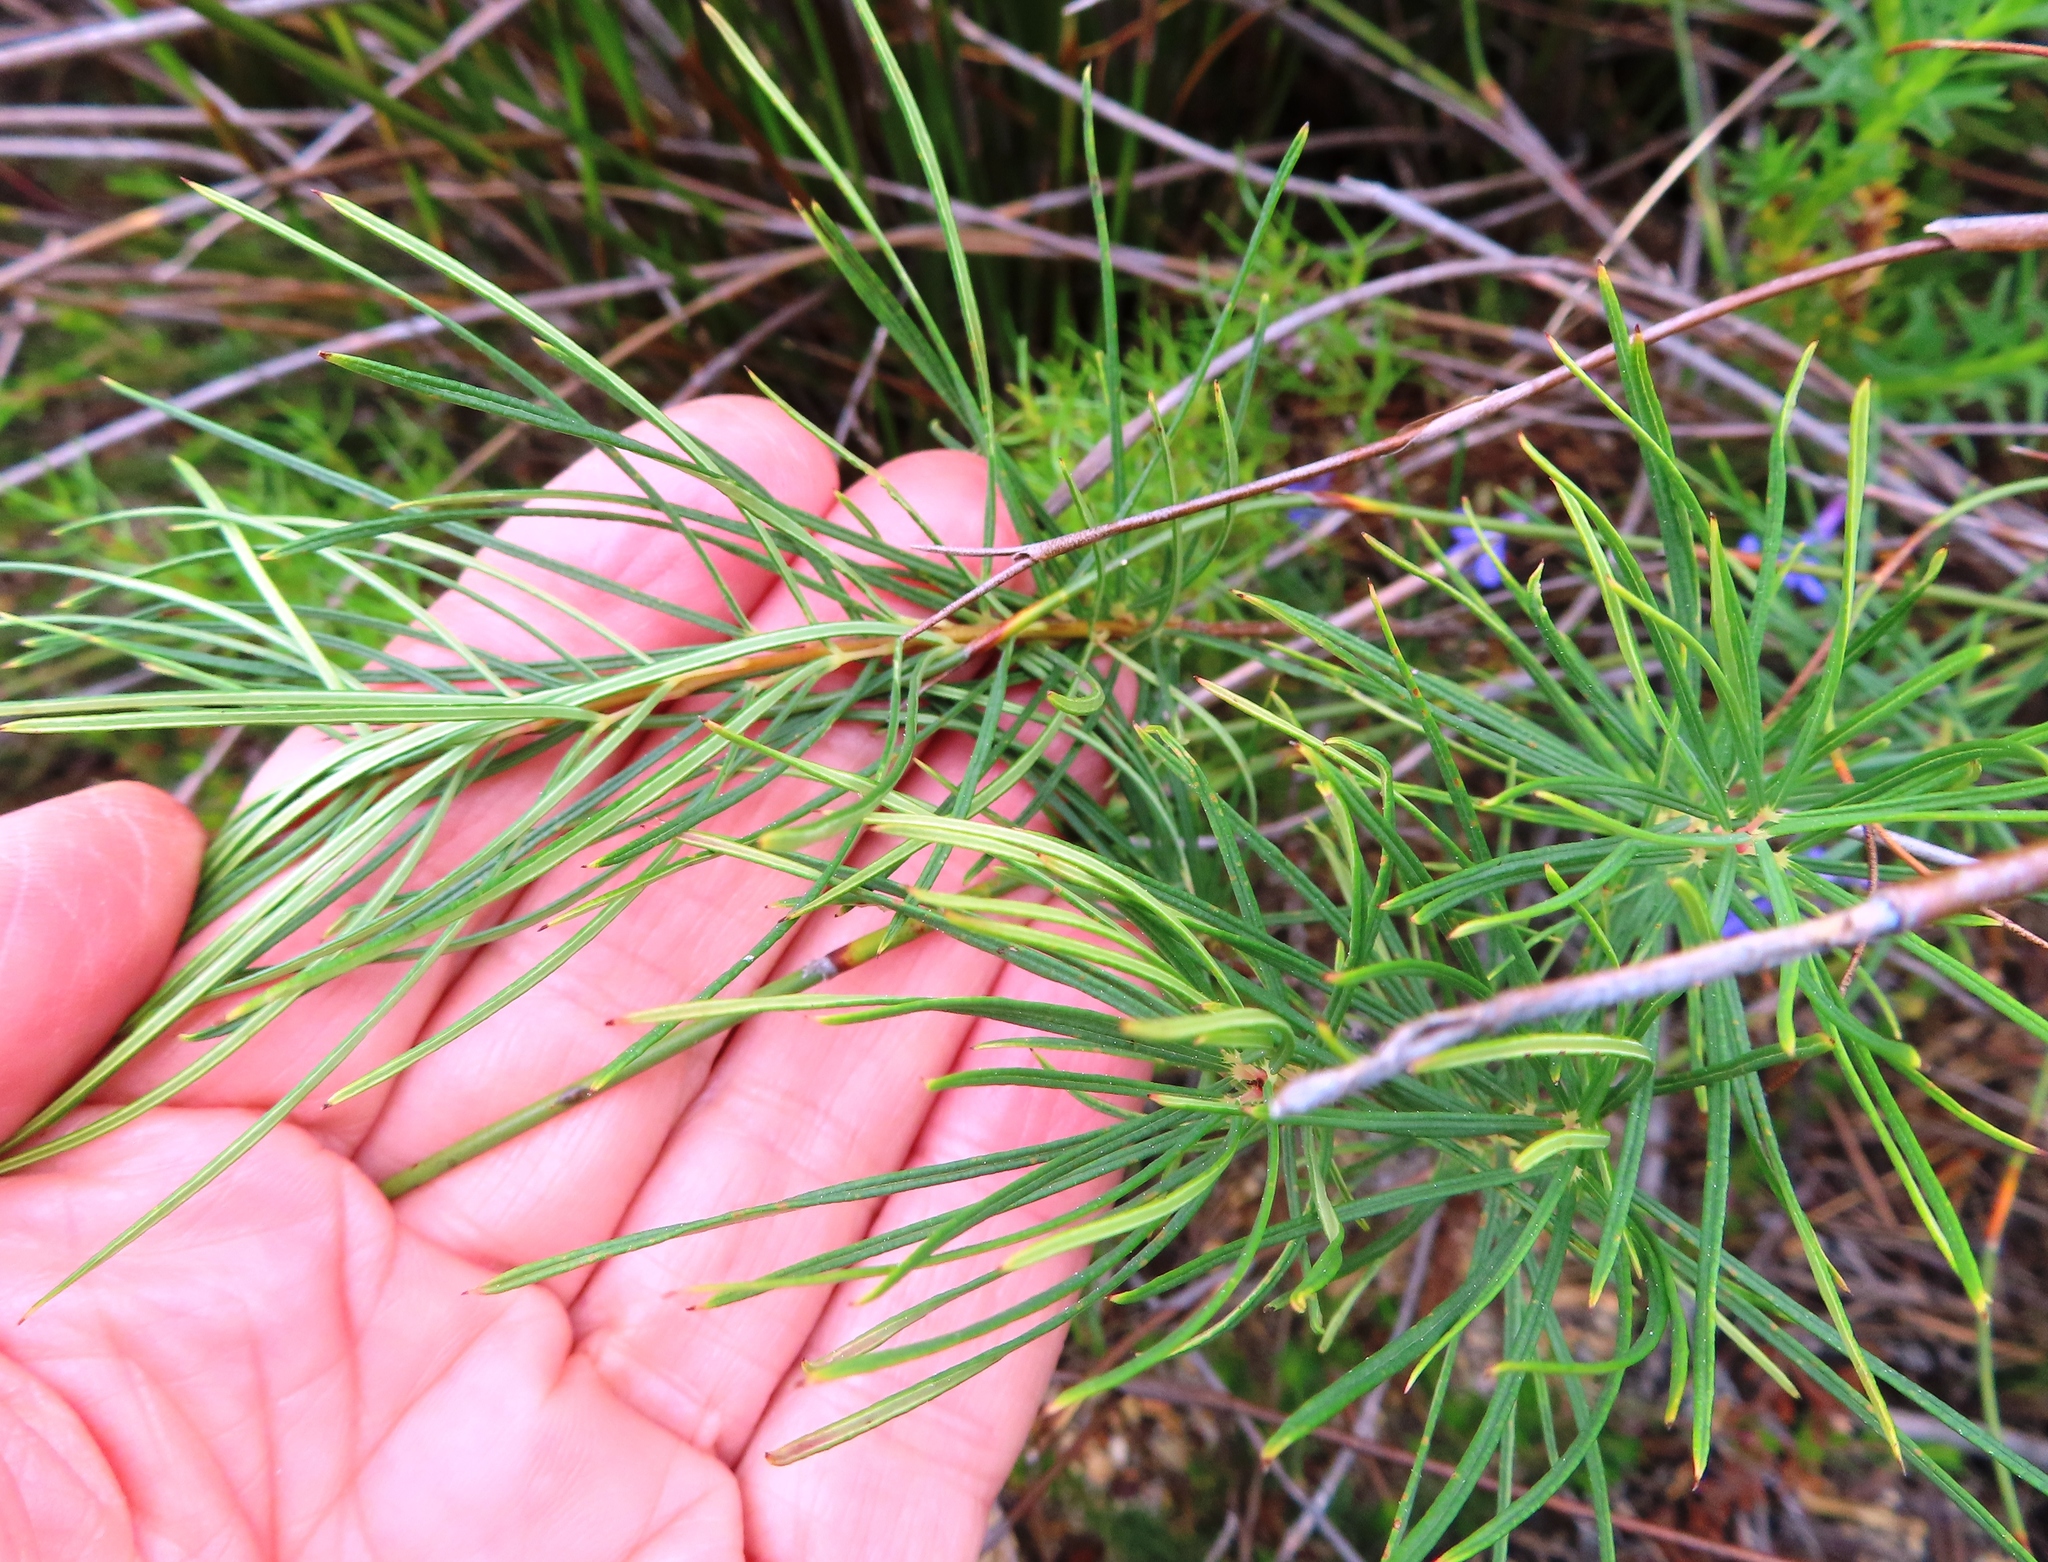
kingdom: Plantae
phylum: Tracheophyta
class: Magnoliopsida
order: Sapindales
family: Anacardiaceae
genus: Searsia
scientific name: Searsia rosmarinifolia
